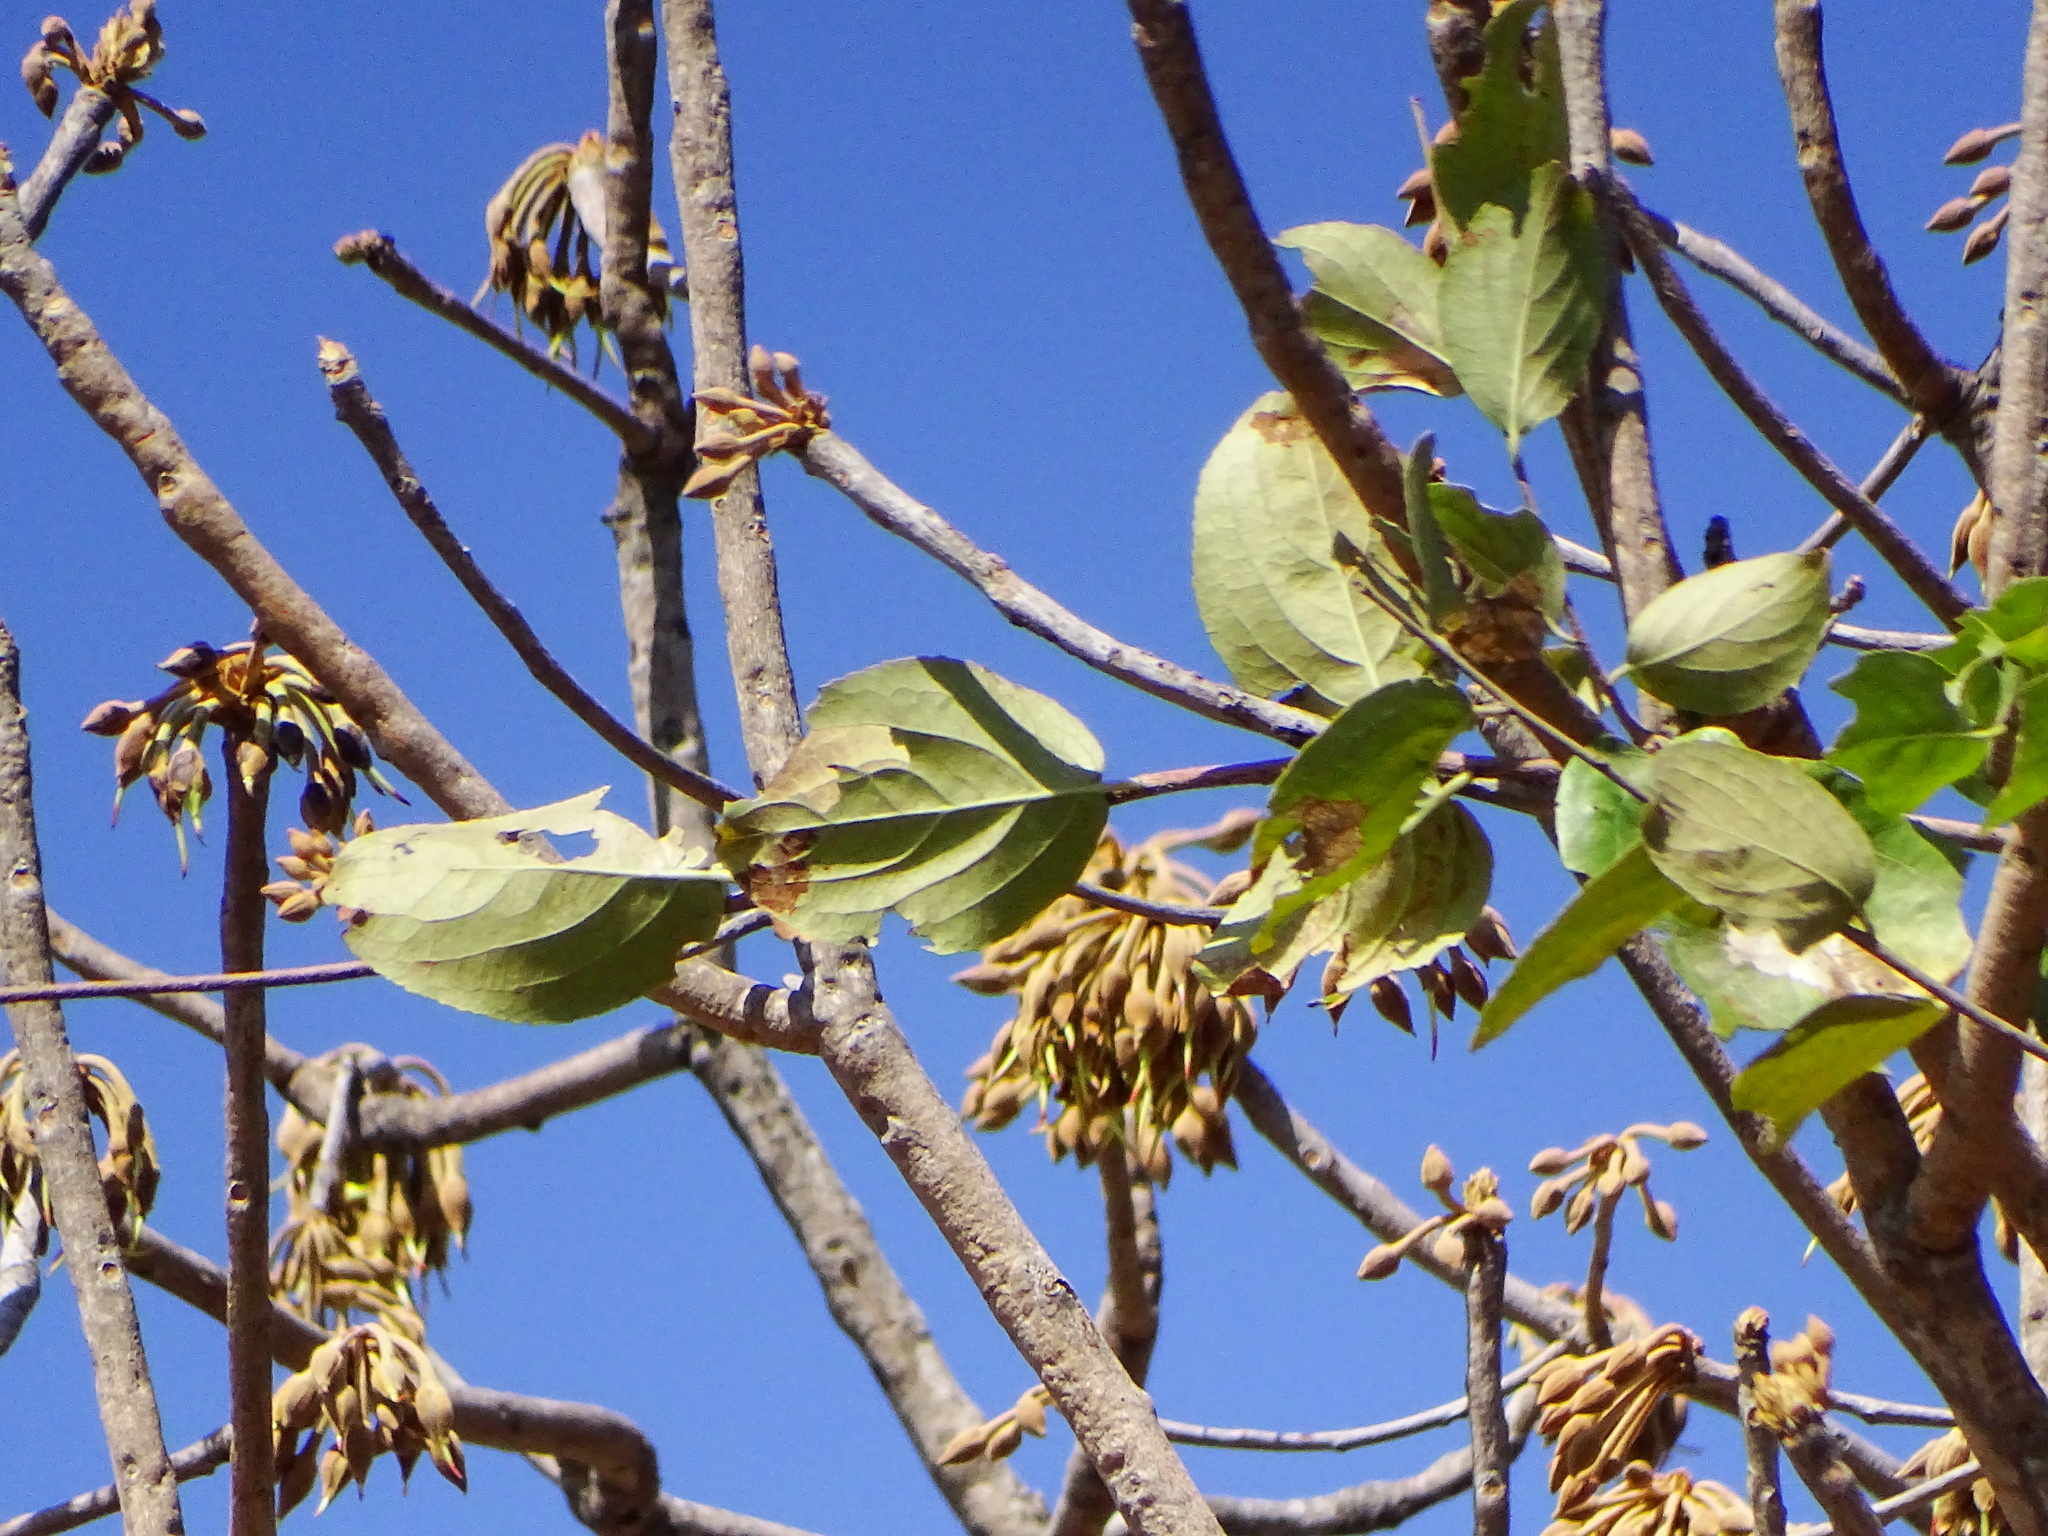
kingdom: Plantae
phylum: Tracheophyta
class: Magnoliopsida
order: Ericales
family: Sapotaceae
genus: Madhuca
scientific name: Madhuca longifolia
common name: Mowra-buttertree
